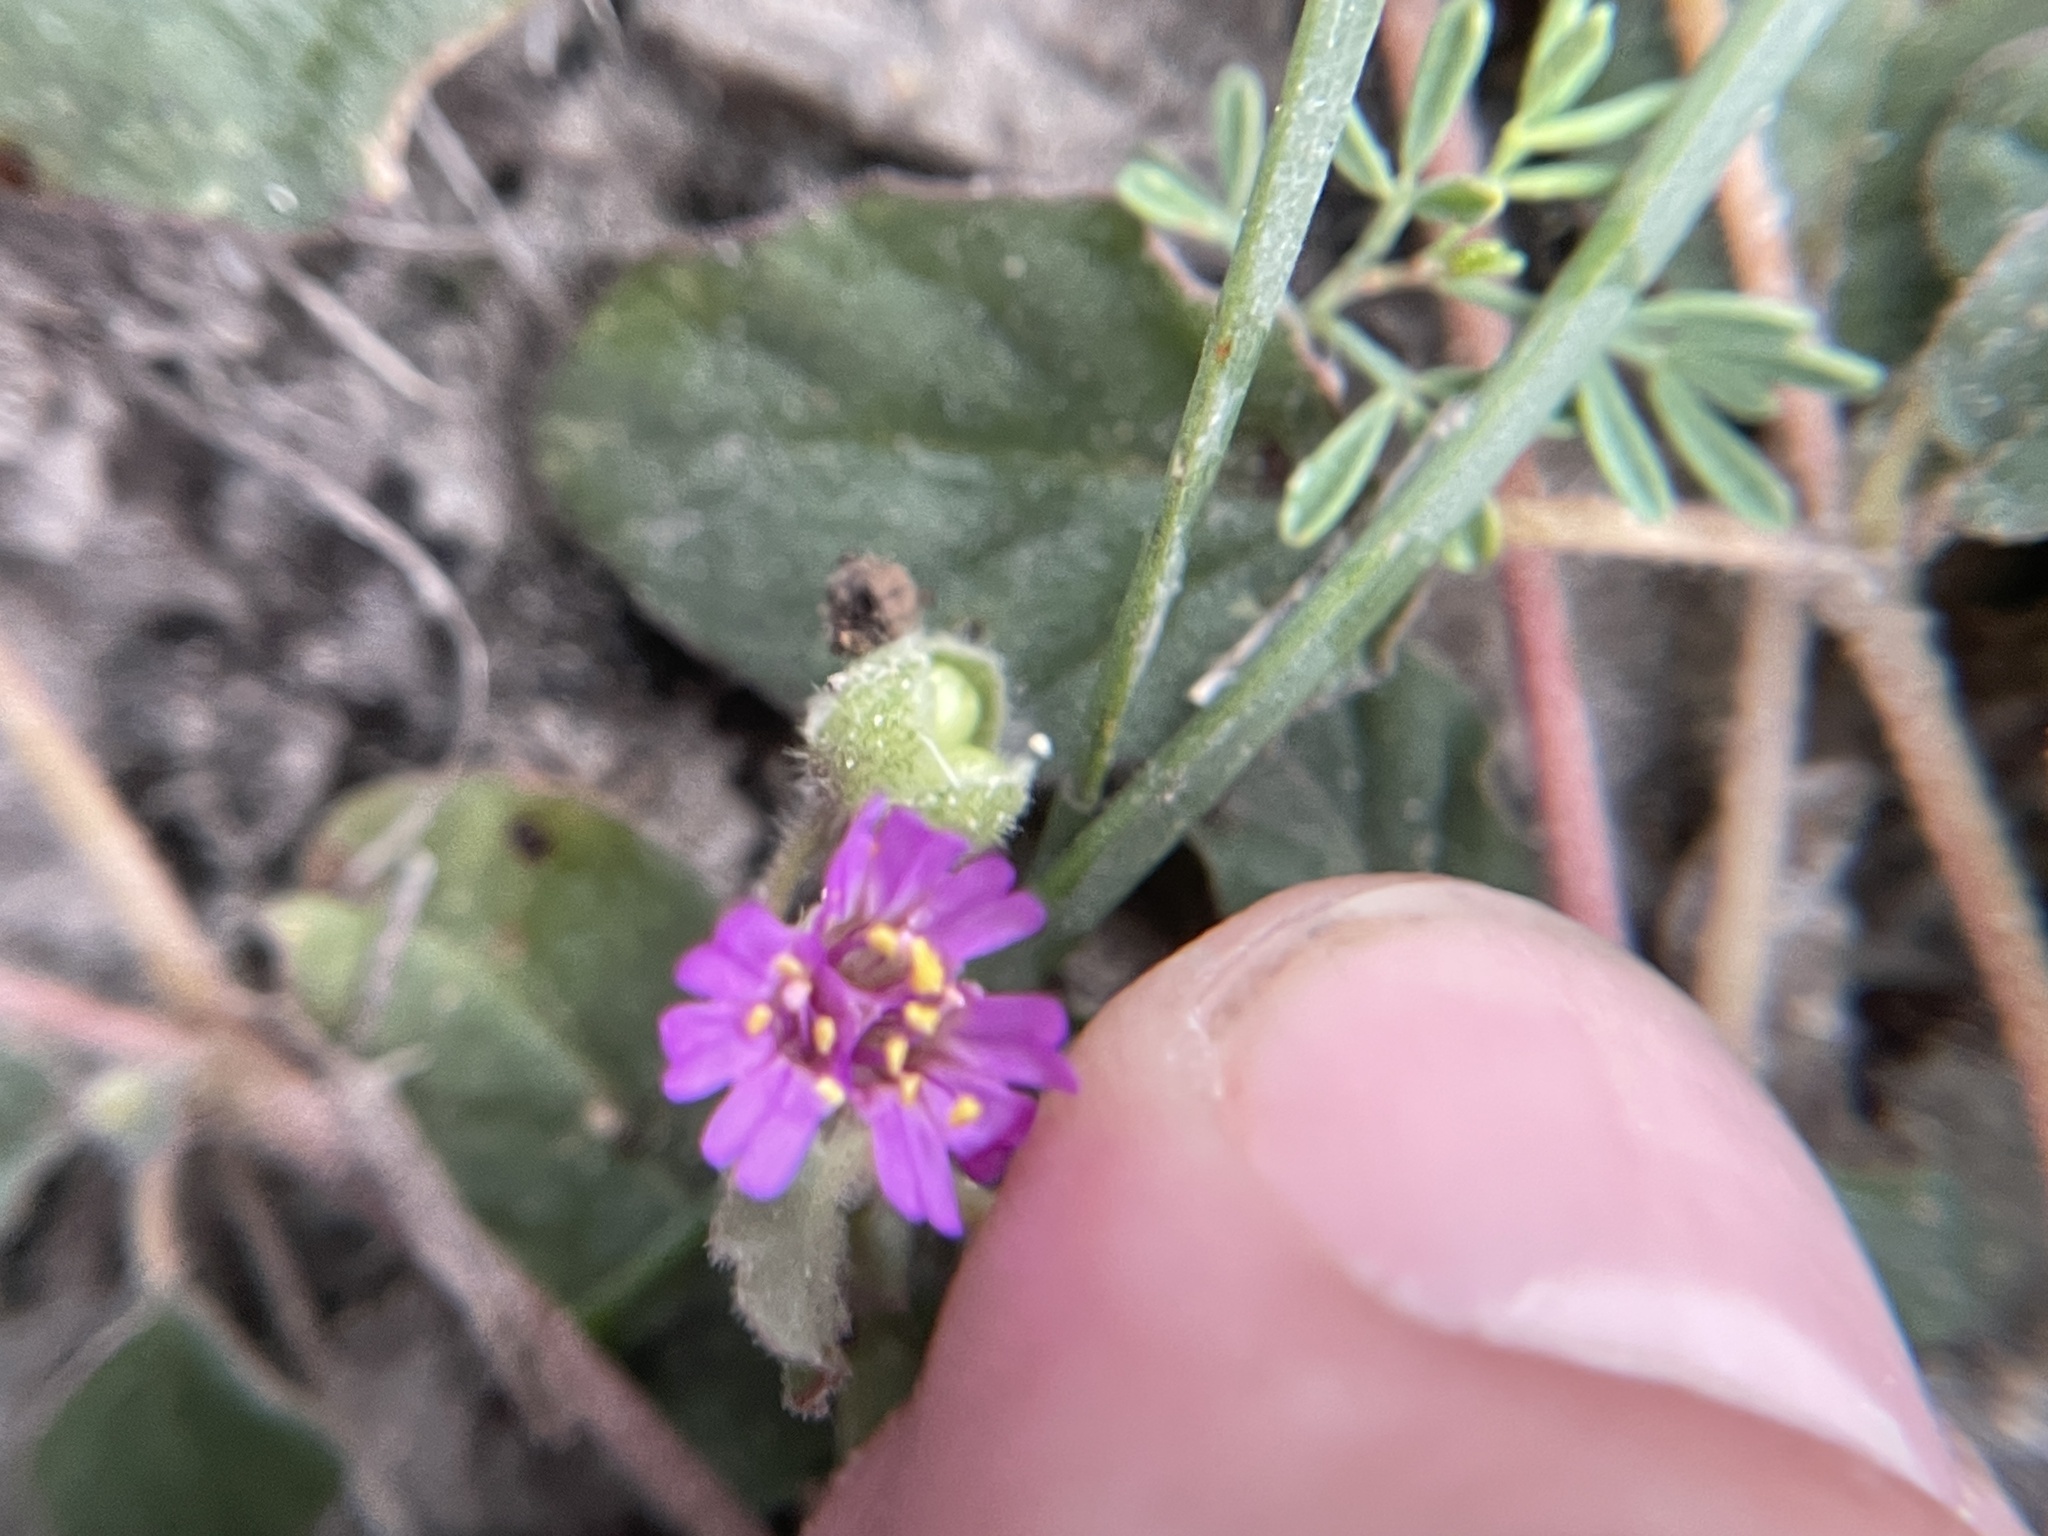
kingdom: Plantae
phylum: Tracheophyta
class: Magnoliopsida
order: Caryophyllales
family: Nyctaginaceae
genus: Allionia
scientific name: Allionia incarnata
